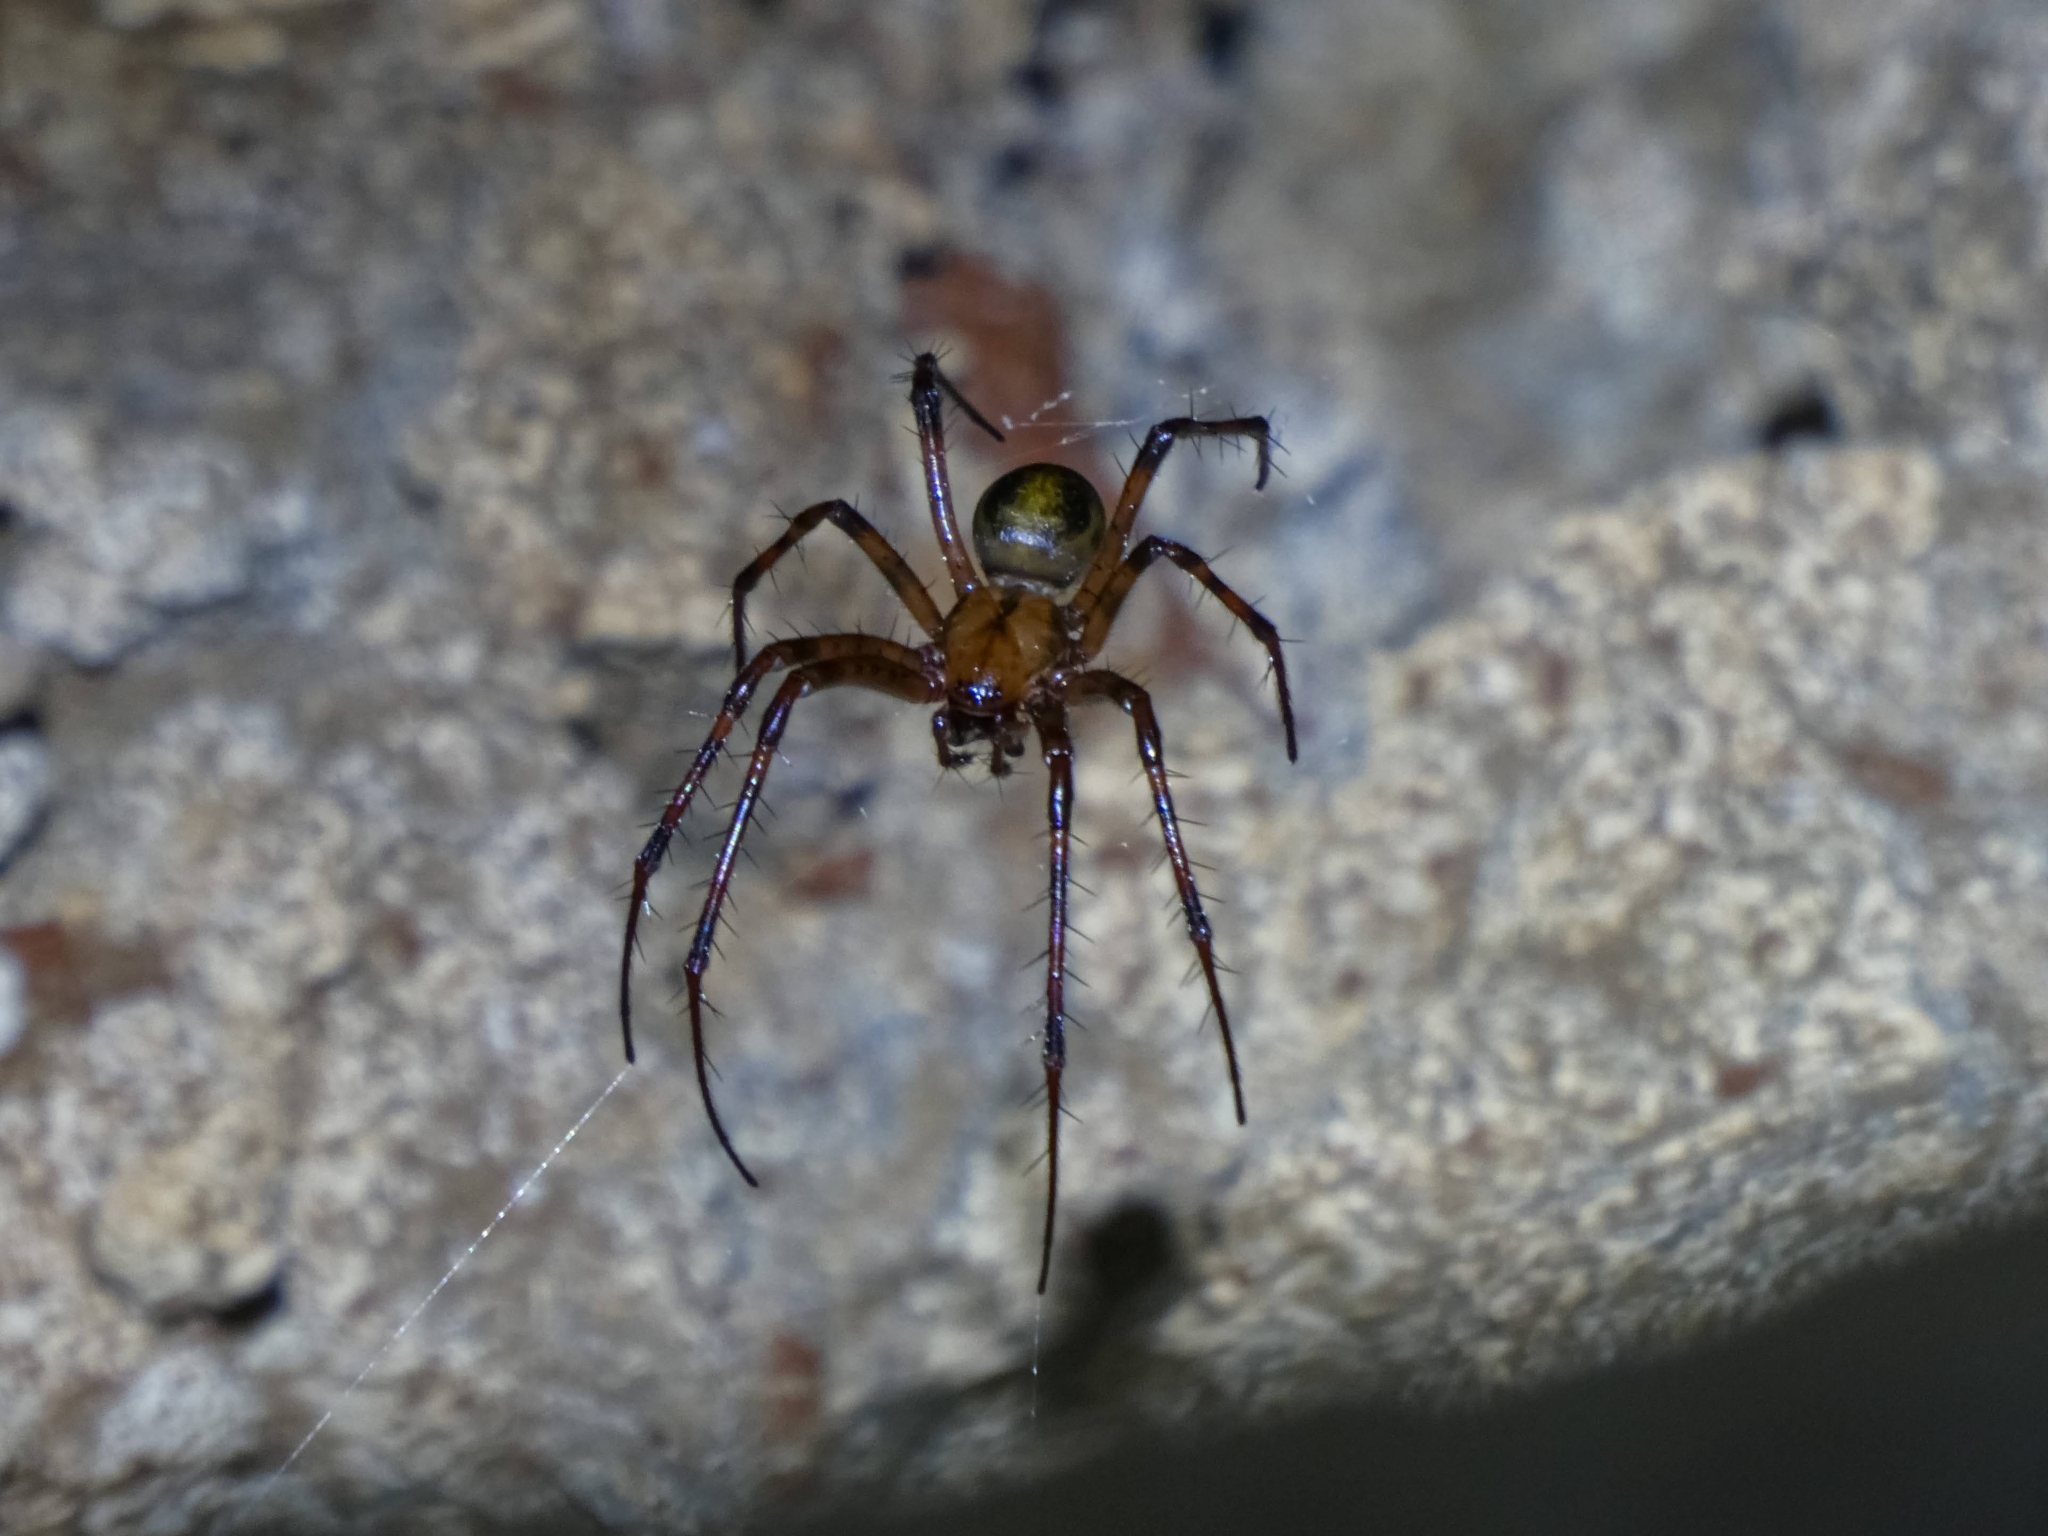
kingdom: Animalia
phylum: Arthropoda
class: Arachnida
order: Araneae
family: Tetragnathidae
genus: Meta
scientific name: Meta menardi
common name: Cave spider
